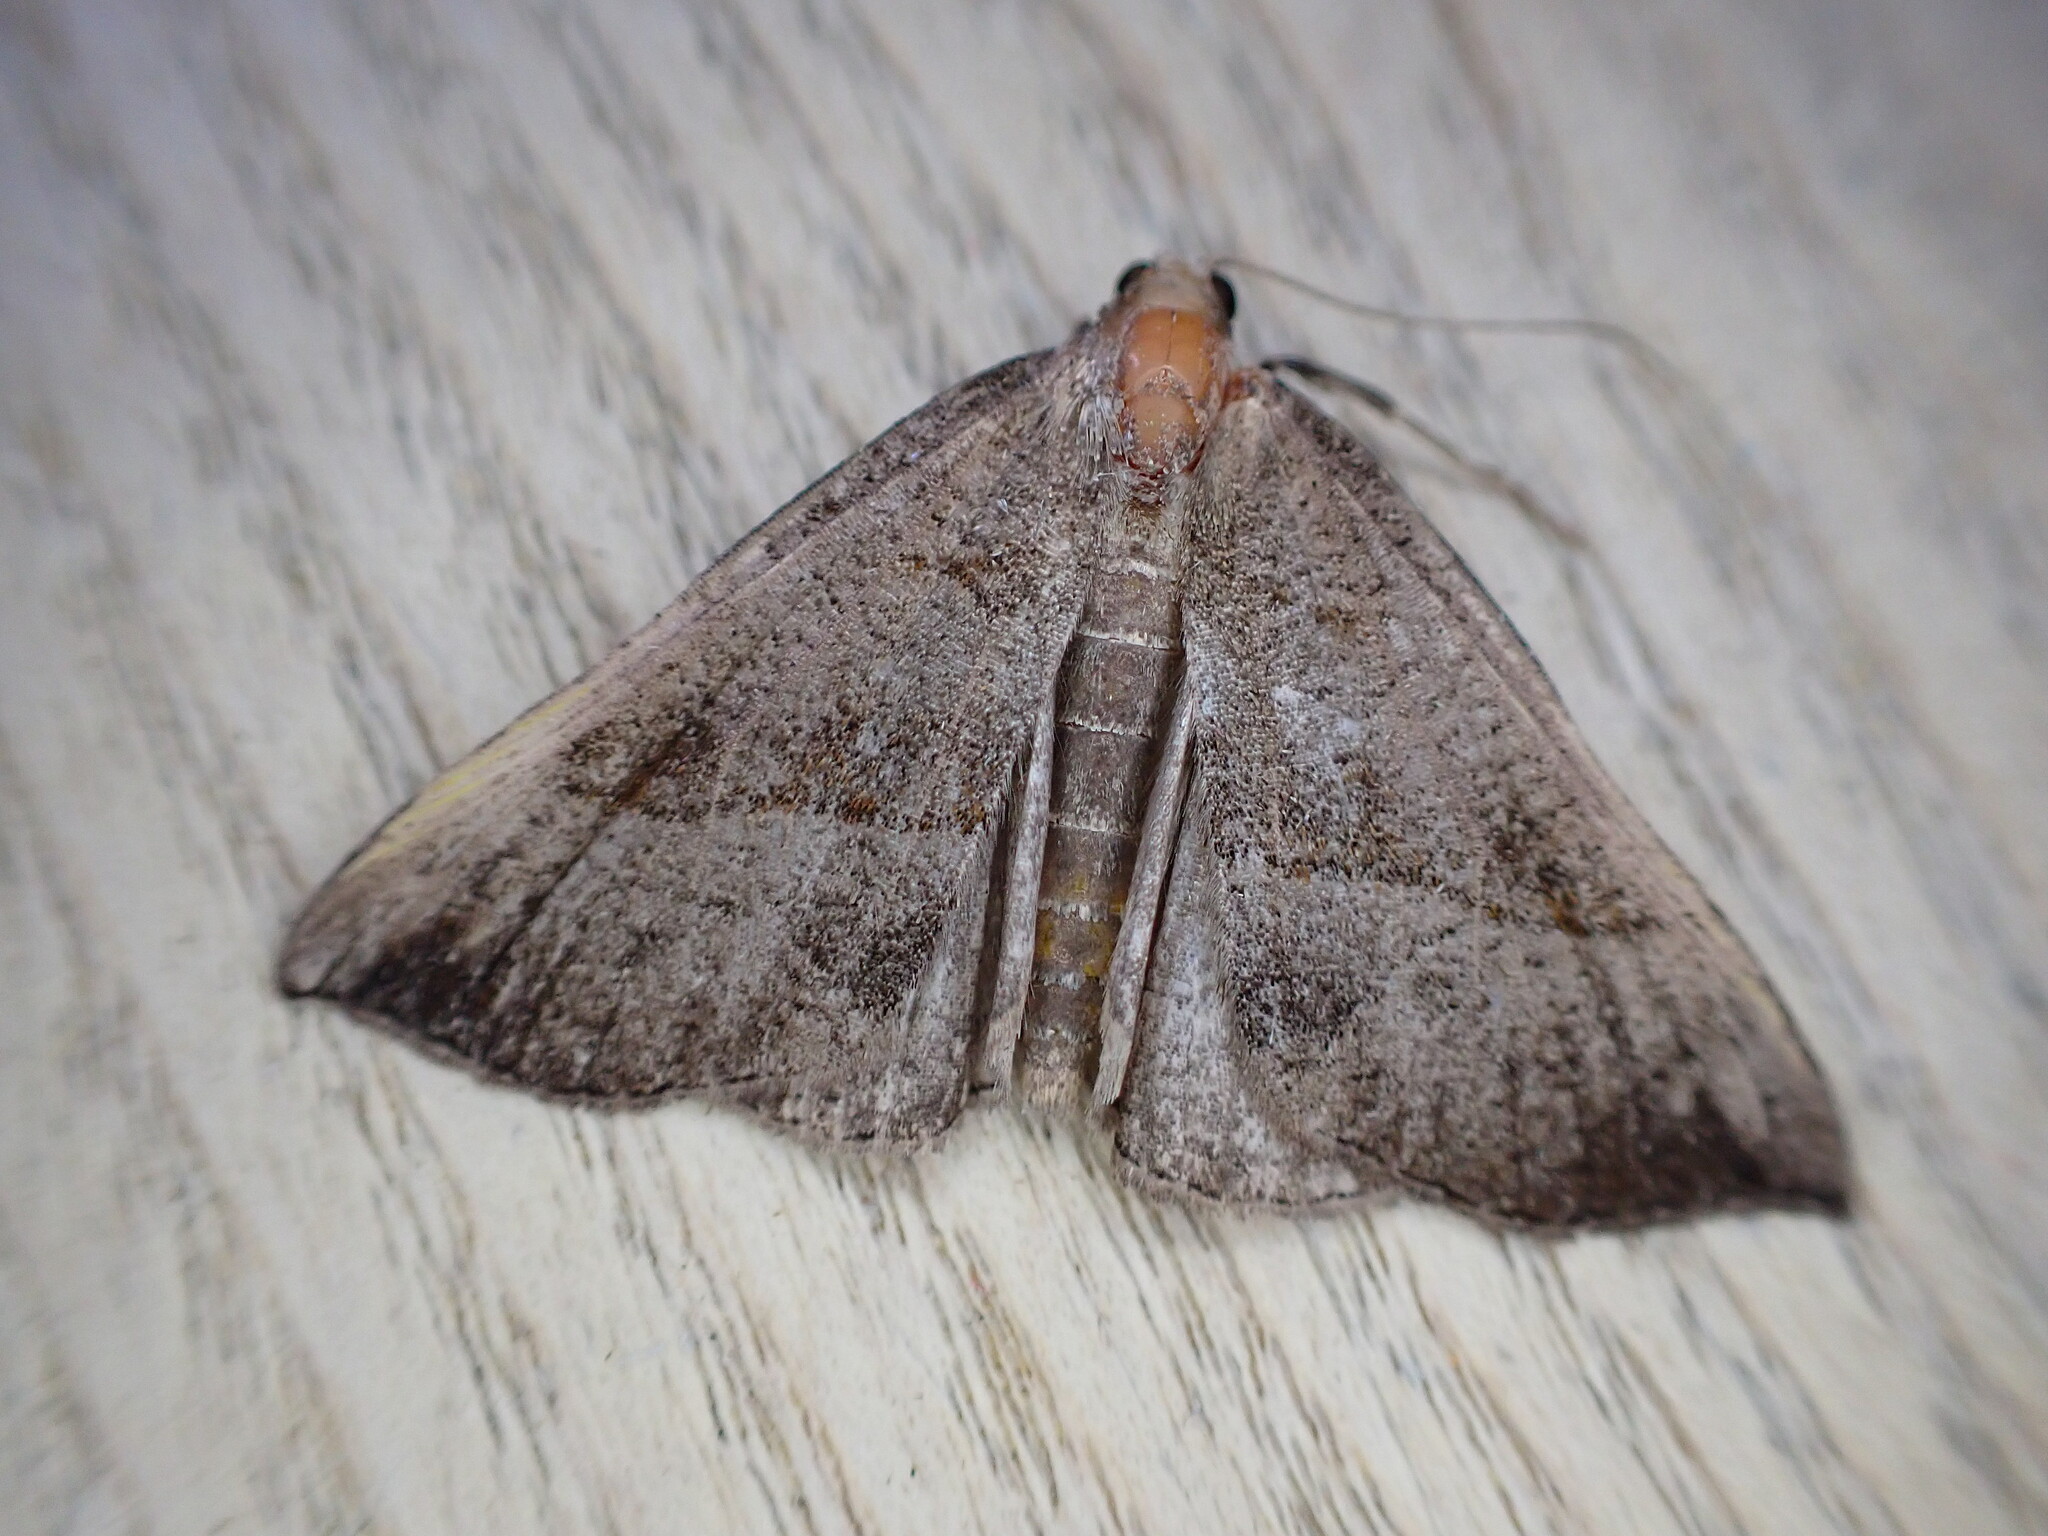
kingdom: Animalia
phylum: Arthropoda
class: Insecta
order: Lepidoptera
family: Erebidae
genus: Hypena
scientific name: Hypena proboscidalis
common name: Snout
